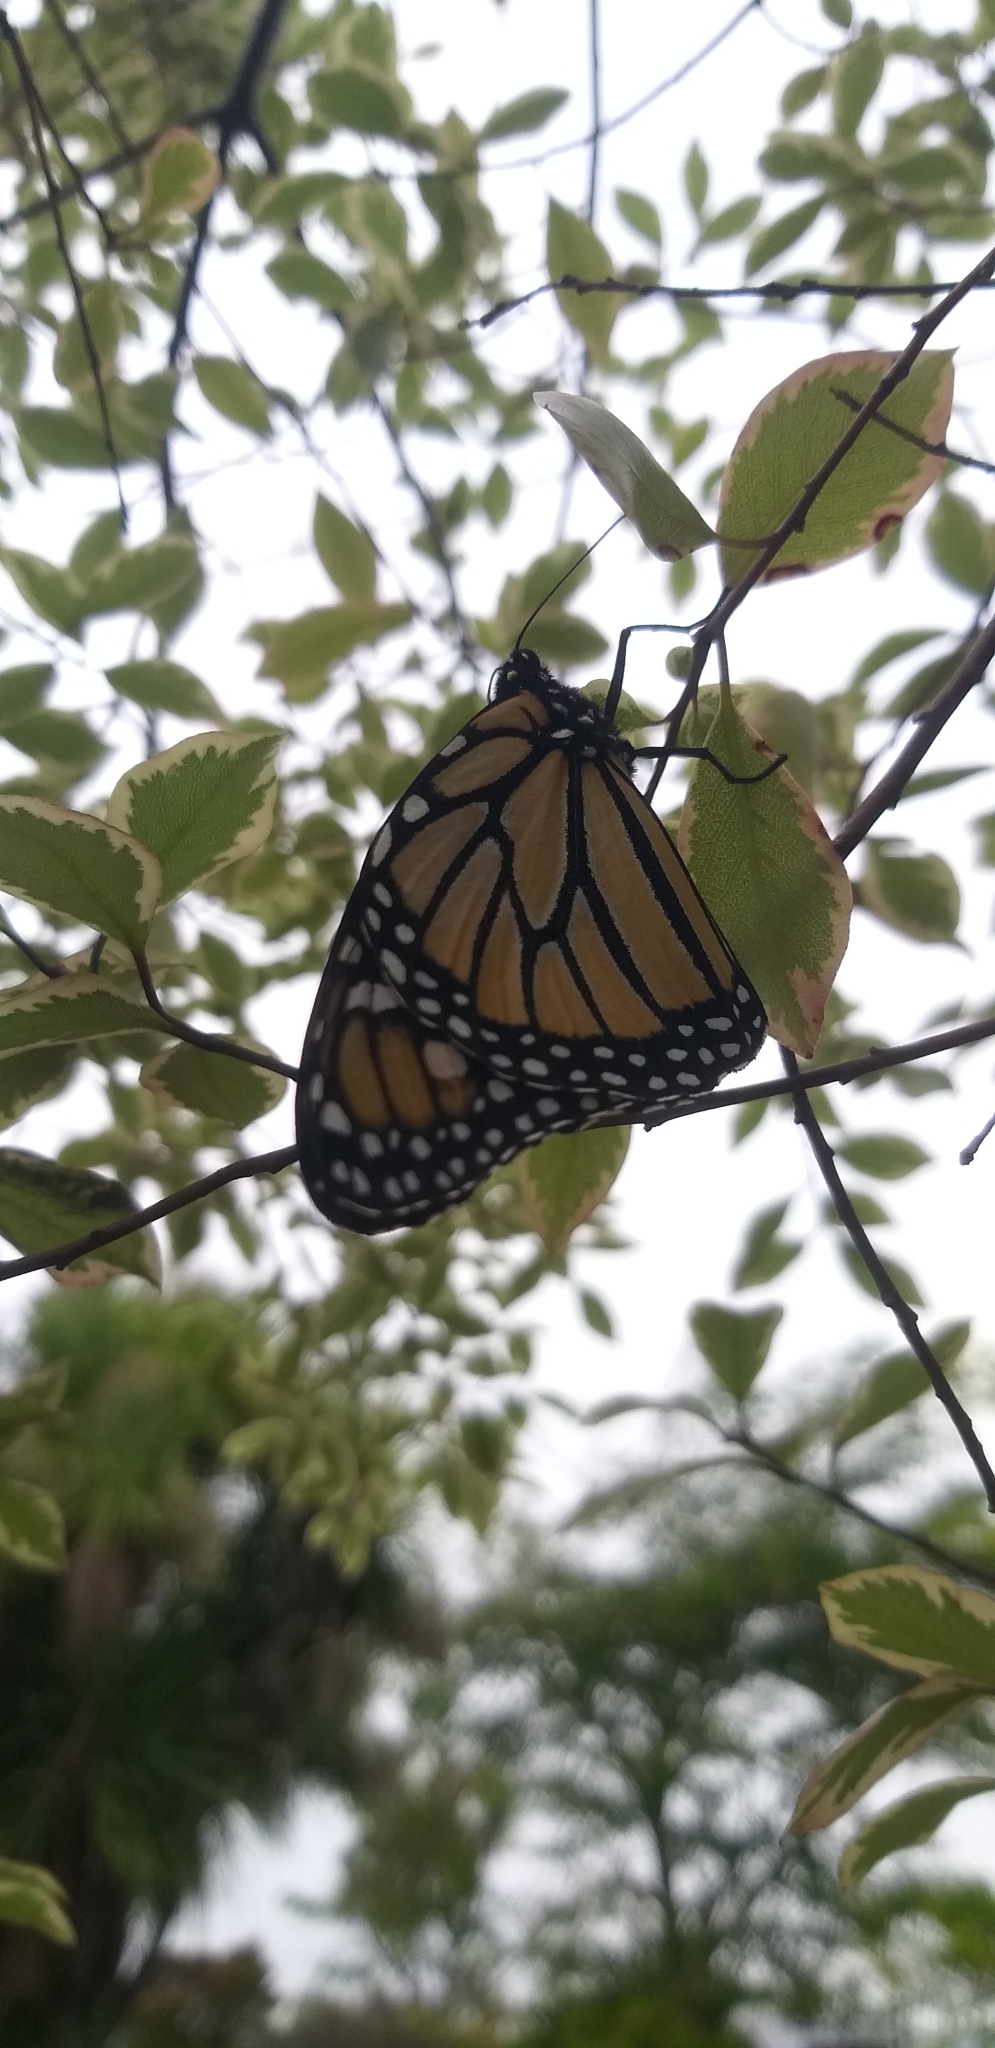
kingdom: Animalia
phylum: Arthropoda
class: Insecta
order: Lepidoptera
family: Nymphalidae
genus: Danaus
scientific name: Danaus plexippus
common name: Monarch
